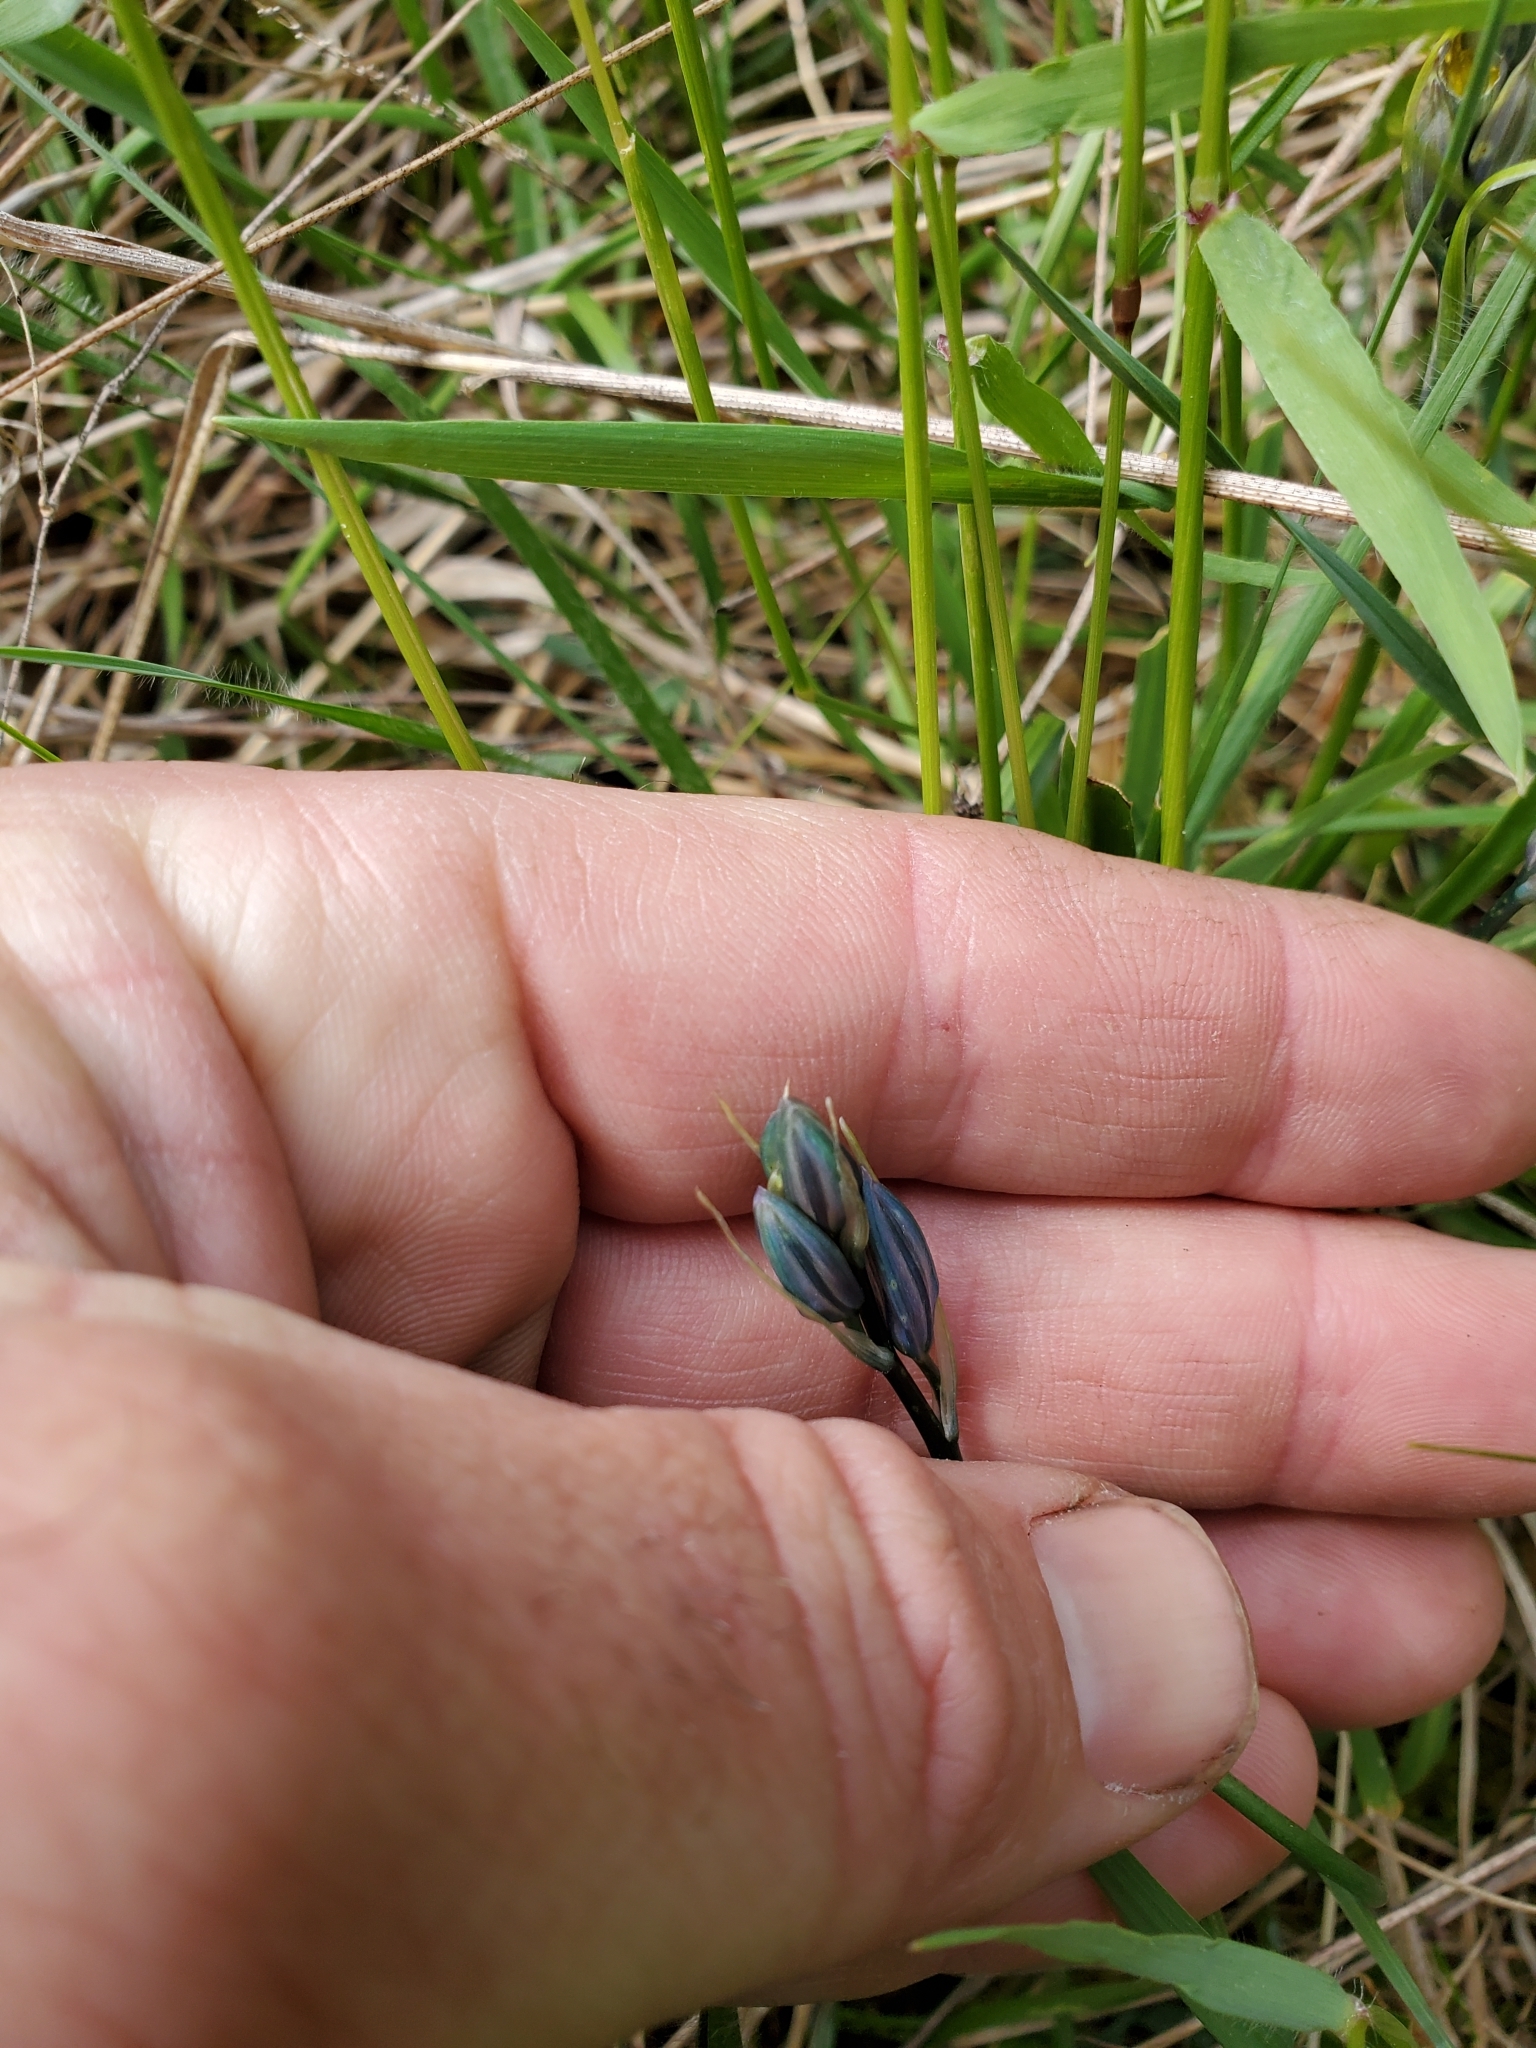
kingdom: Plantae
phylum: Tracheophyta
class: Liliopsida
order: Asparagales
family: Asparagaceae
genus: Camassia
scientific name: Camassia quamash
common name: Common camas
